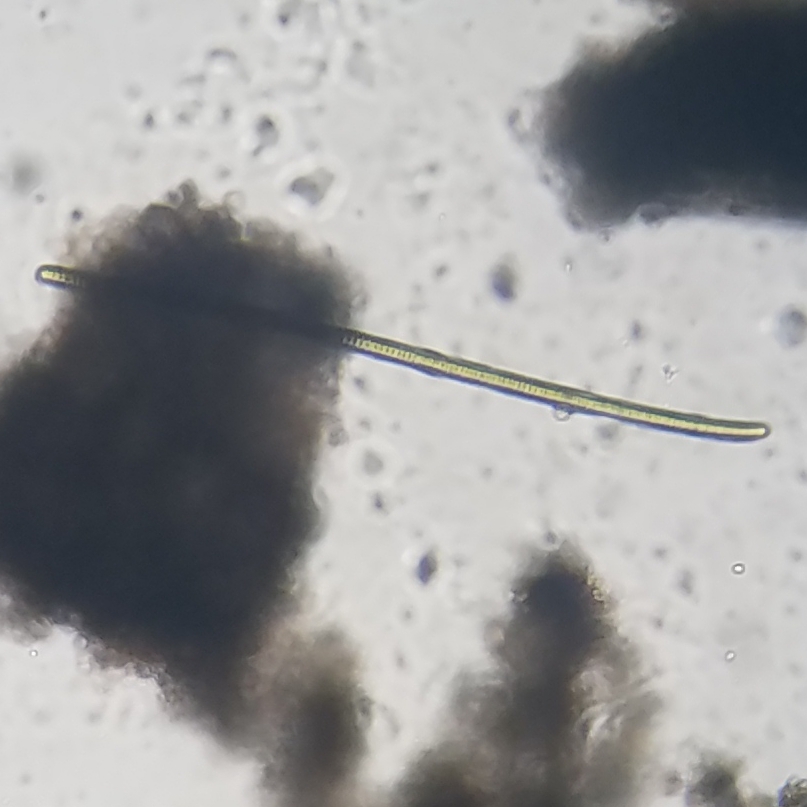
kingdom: Bacteria
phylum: Cyanobacteria
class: Cyanobacteriia
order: Cyanobacteriales
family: Oscillatoriaceae
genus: Oscillatoria
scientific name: Oscillatoria
